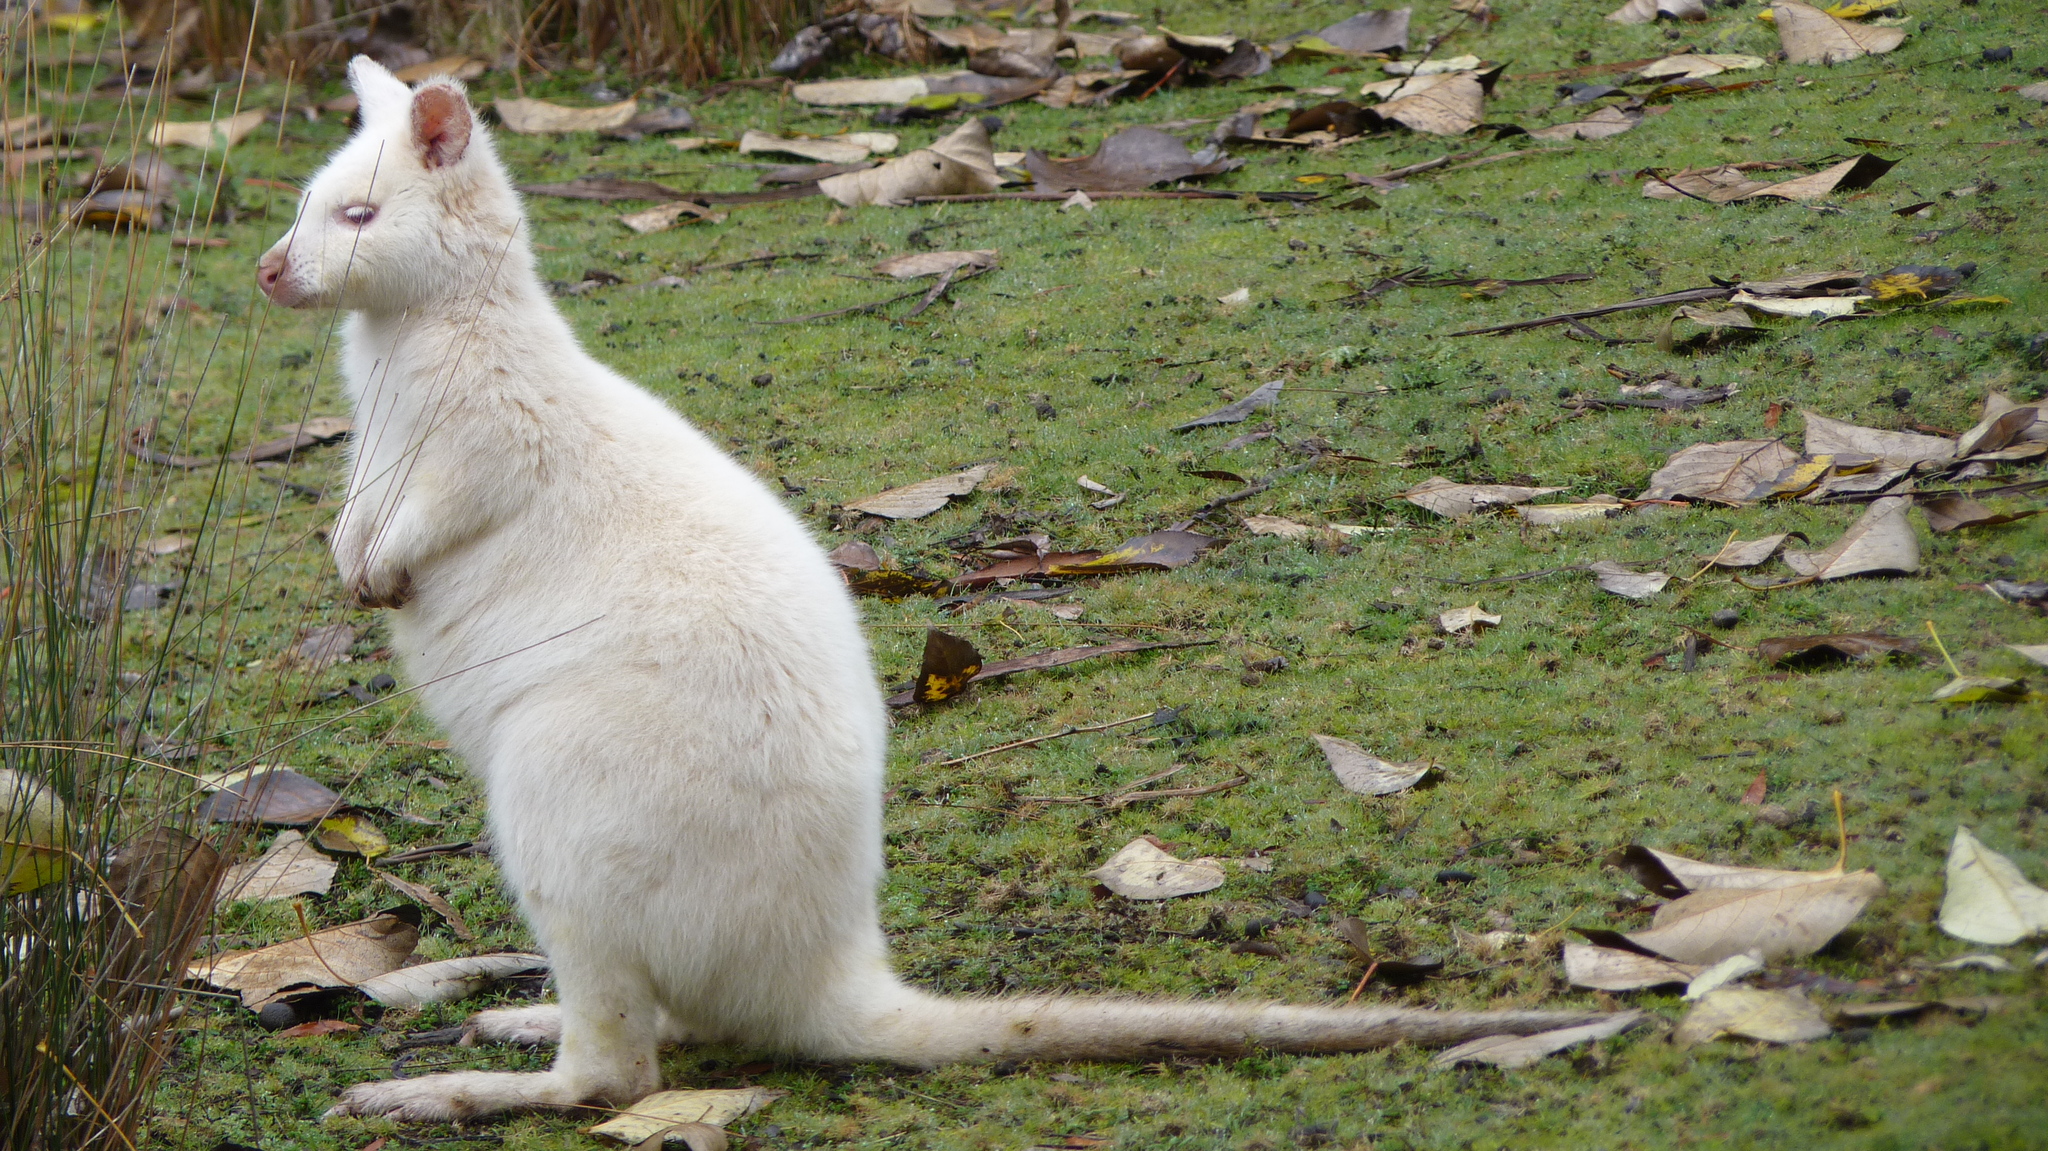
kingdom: Animalia
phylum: Chordata
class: Mammalia
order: Diprotodontia
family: Macropodidae
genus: Notamacropus
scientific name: Notamacropus rufogriseus
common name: Red-necked wallaby
